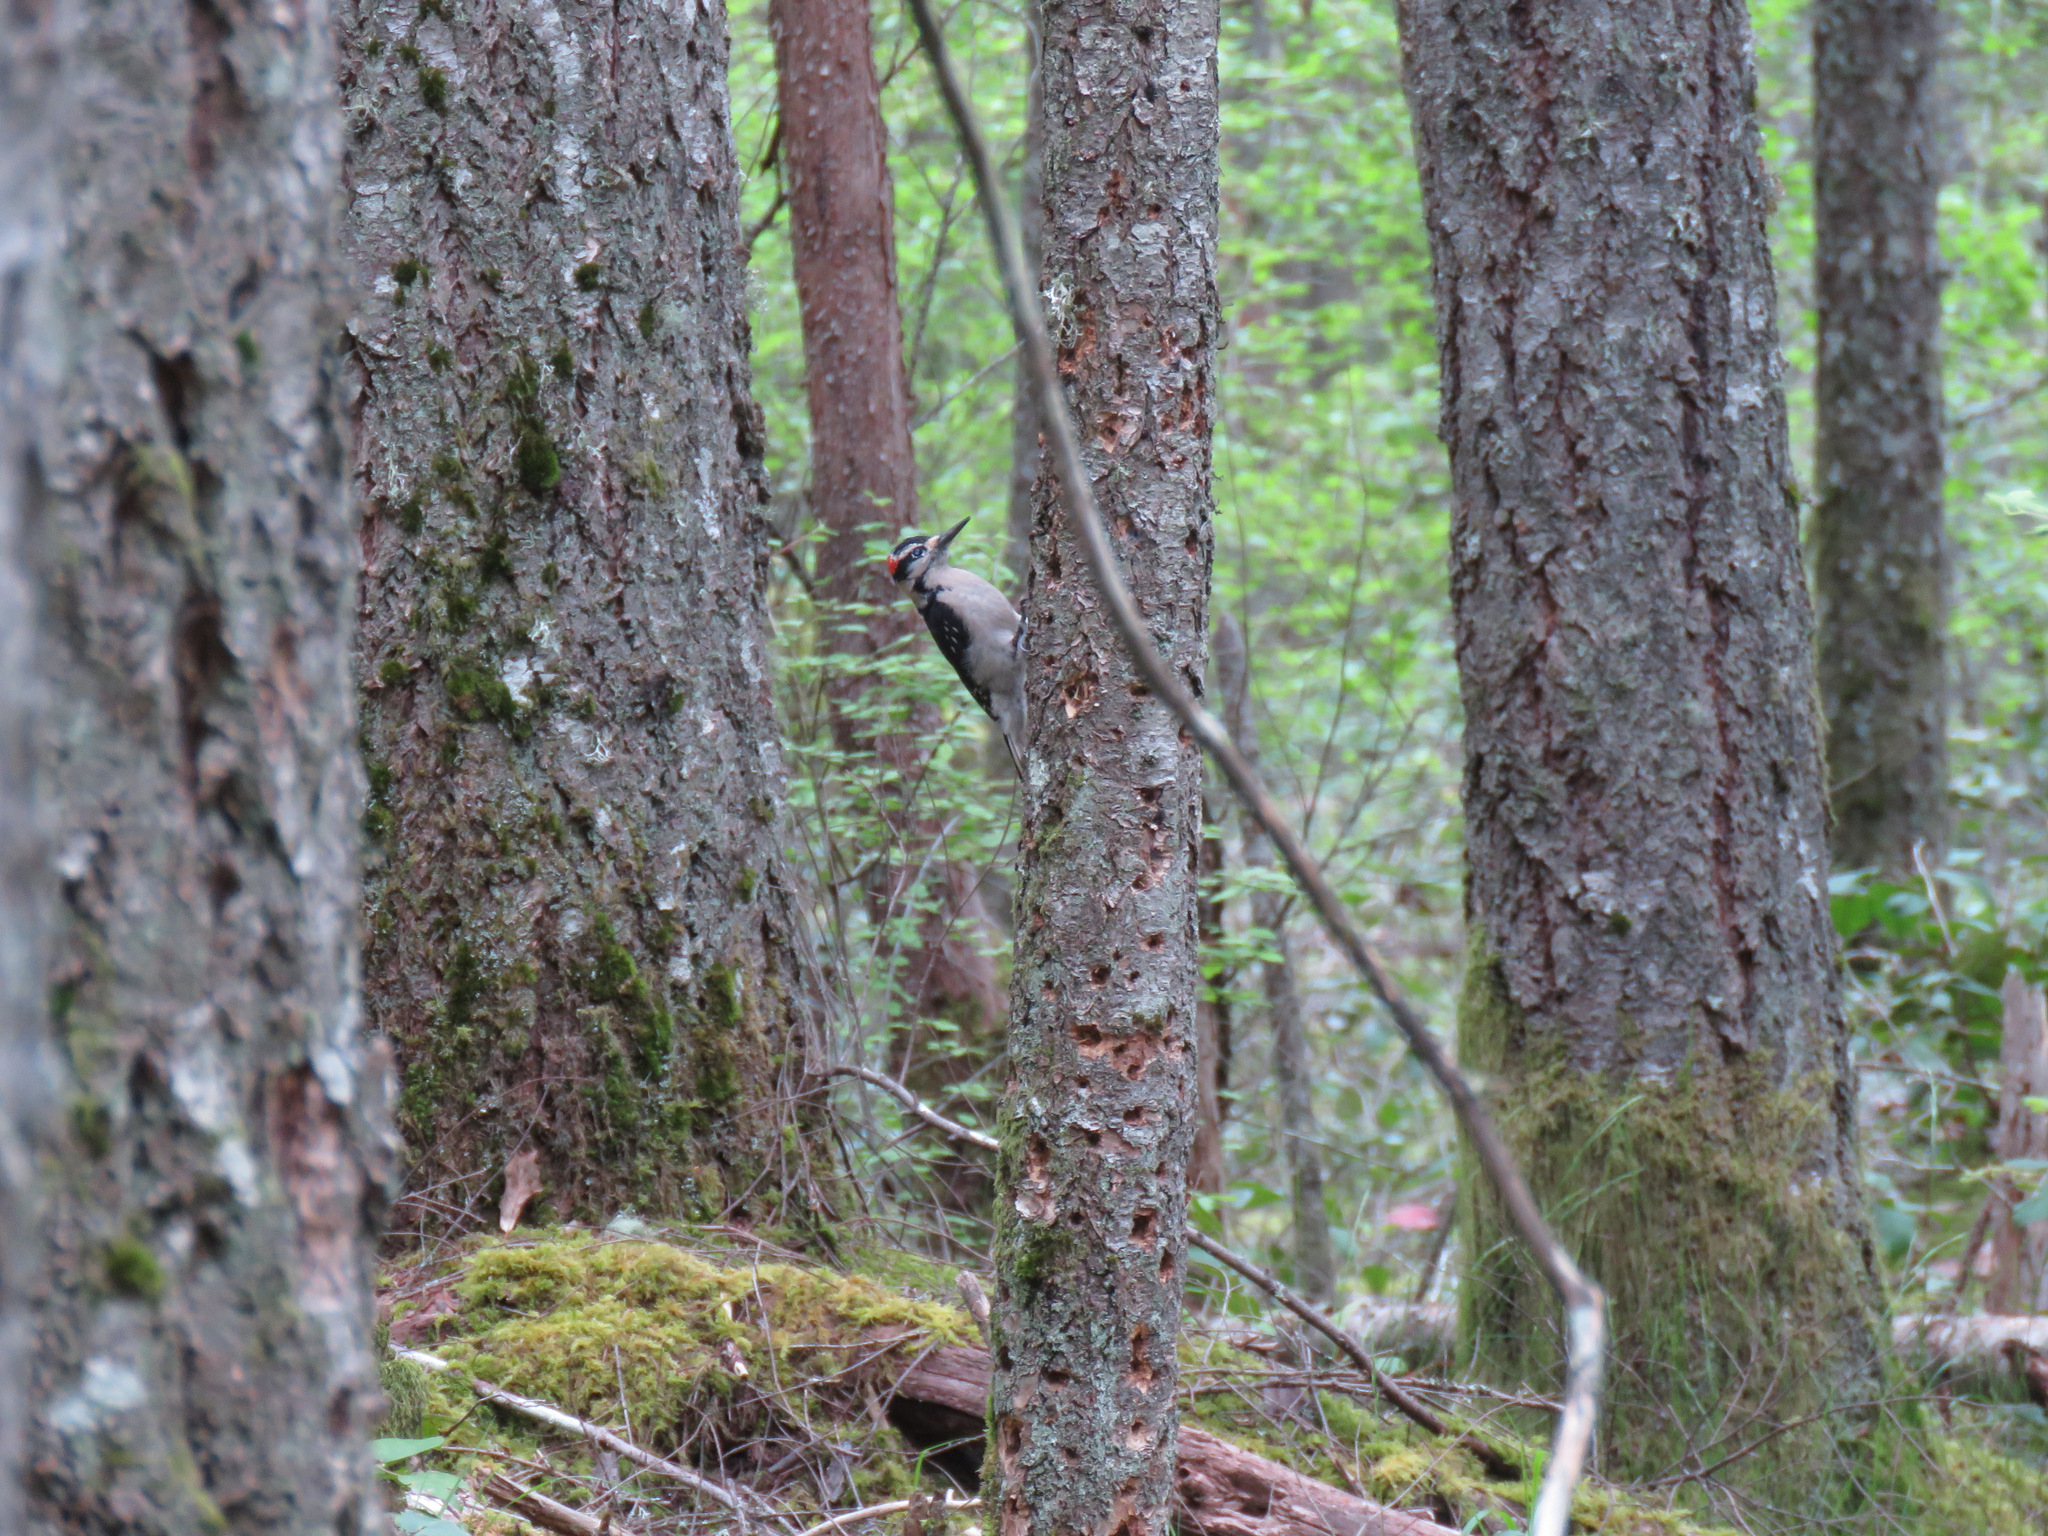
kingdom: Animalia
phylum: Chordata
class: Aves
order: Piciformes
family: Picidae
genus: Leuconotopicus
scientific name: Leuconotopicus villosus
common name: Hairy woodpecker
